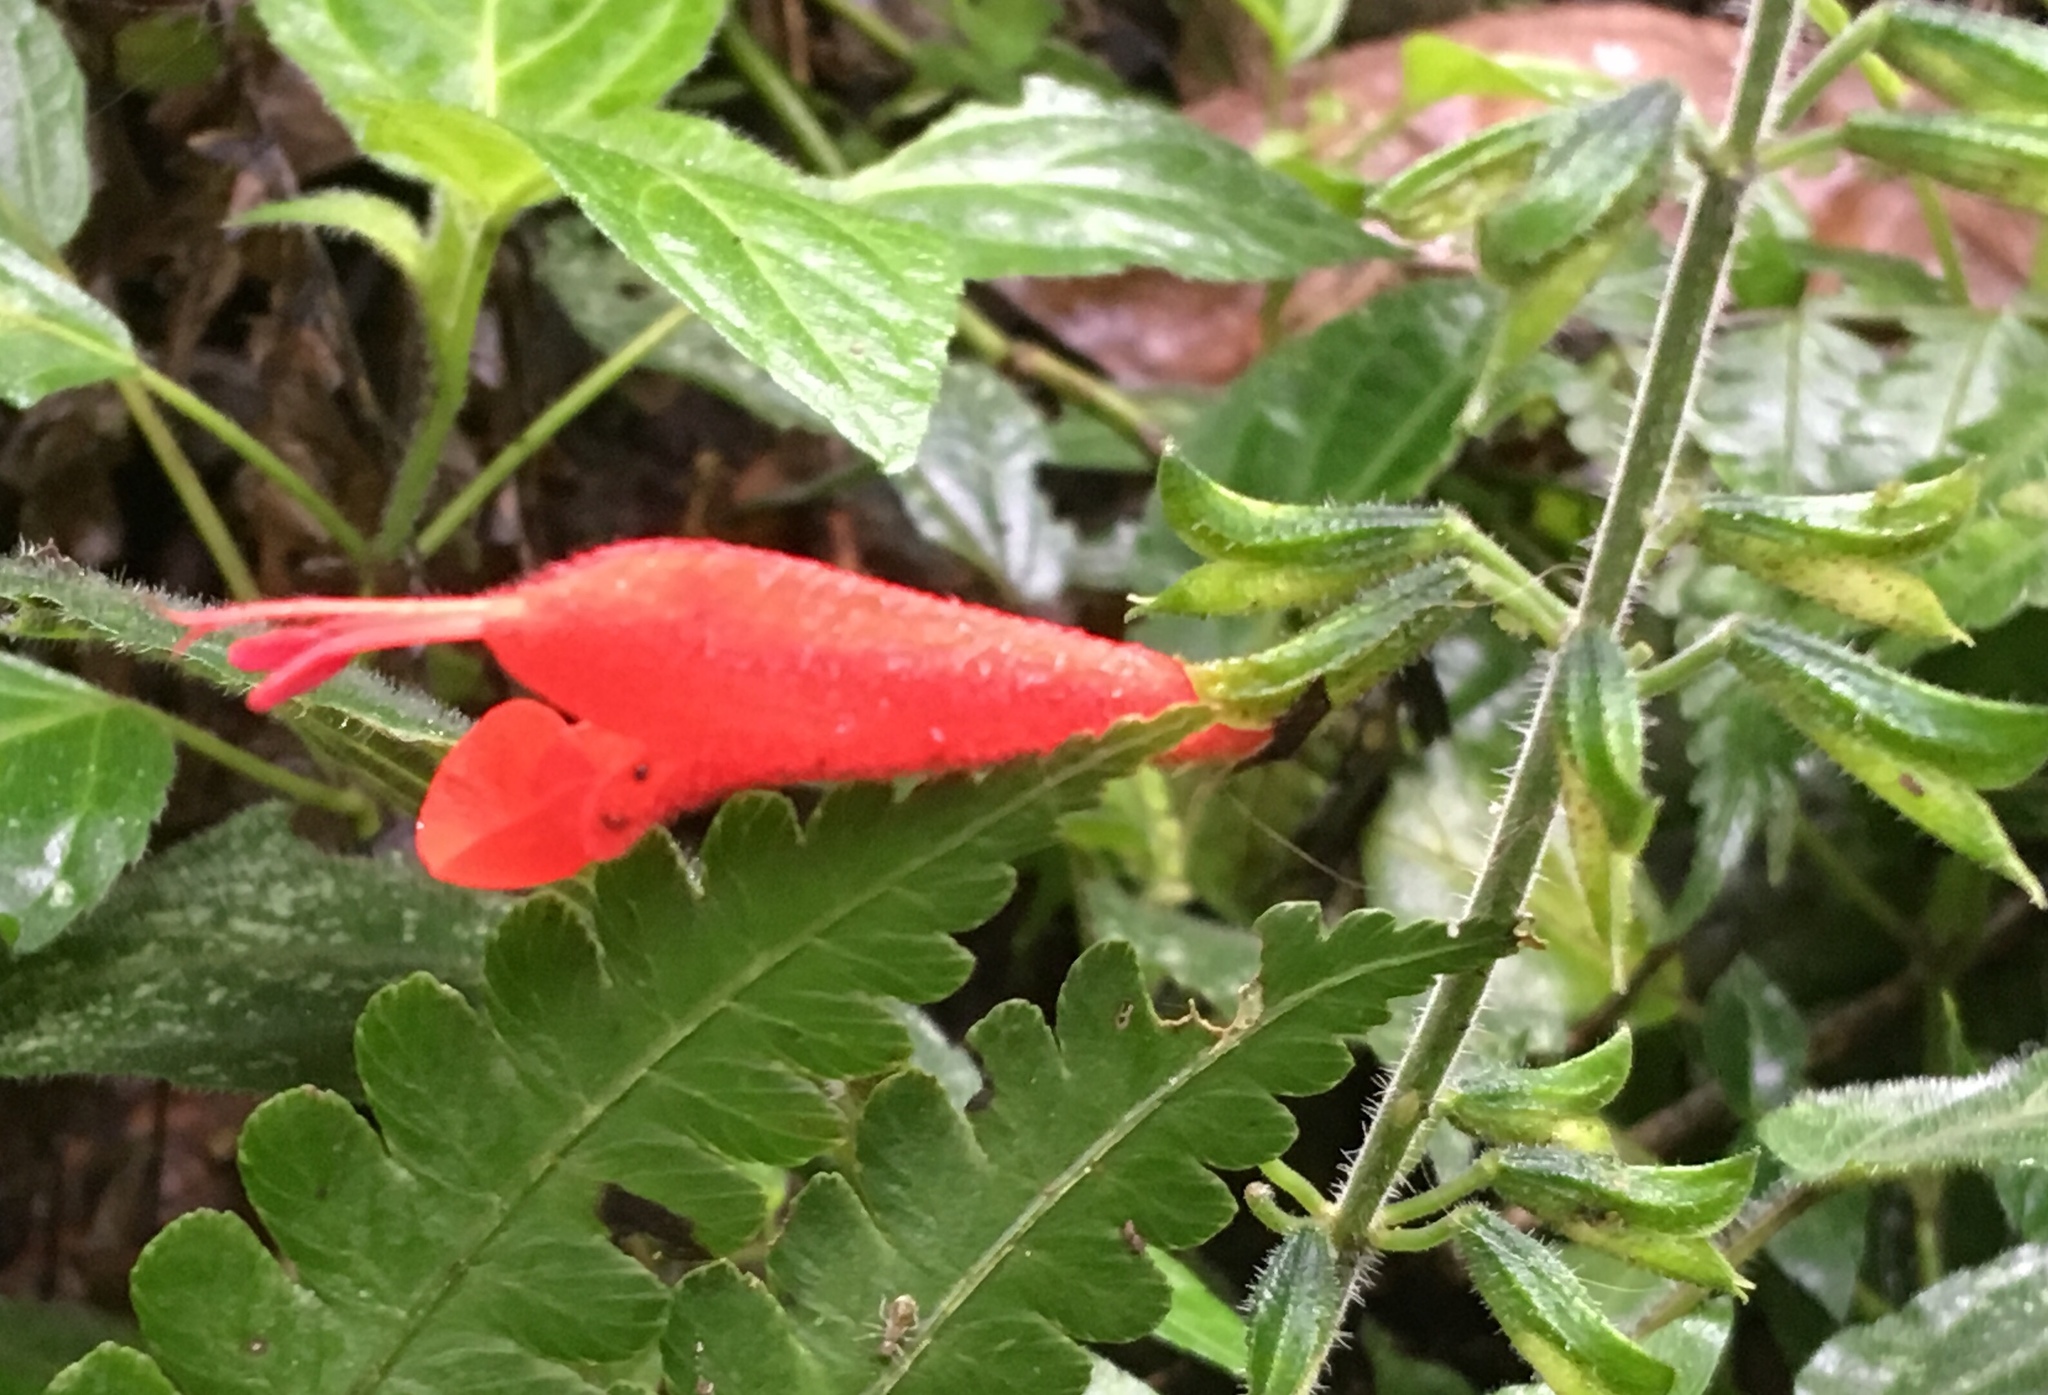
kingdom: Plantae
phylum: Tracheophyta
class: Magnoliopsida
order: Lamiales
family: Lamiaceae
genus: Salvia
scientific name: Salvia pauciserrata
